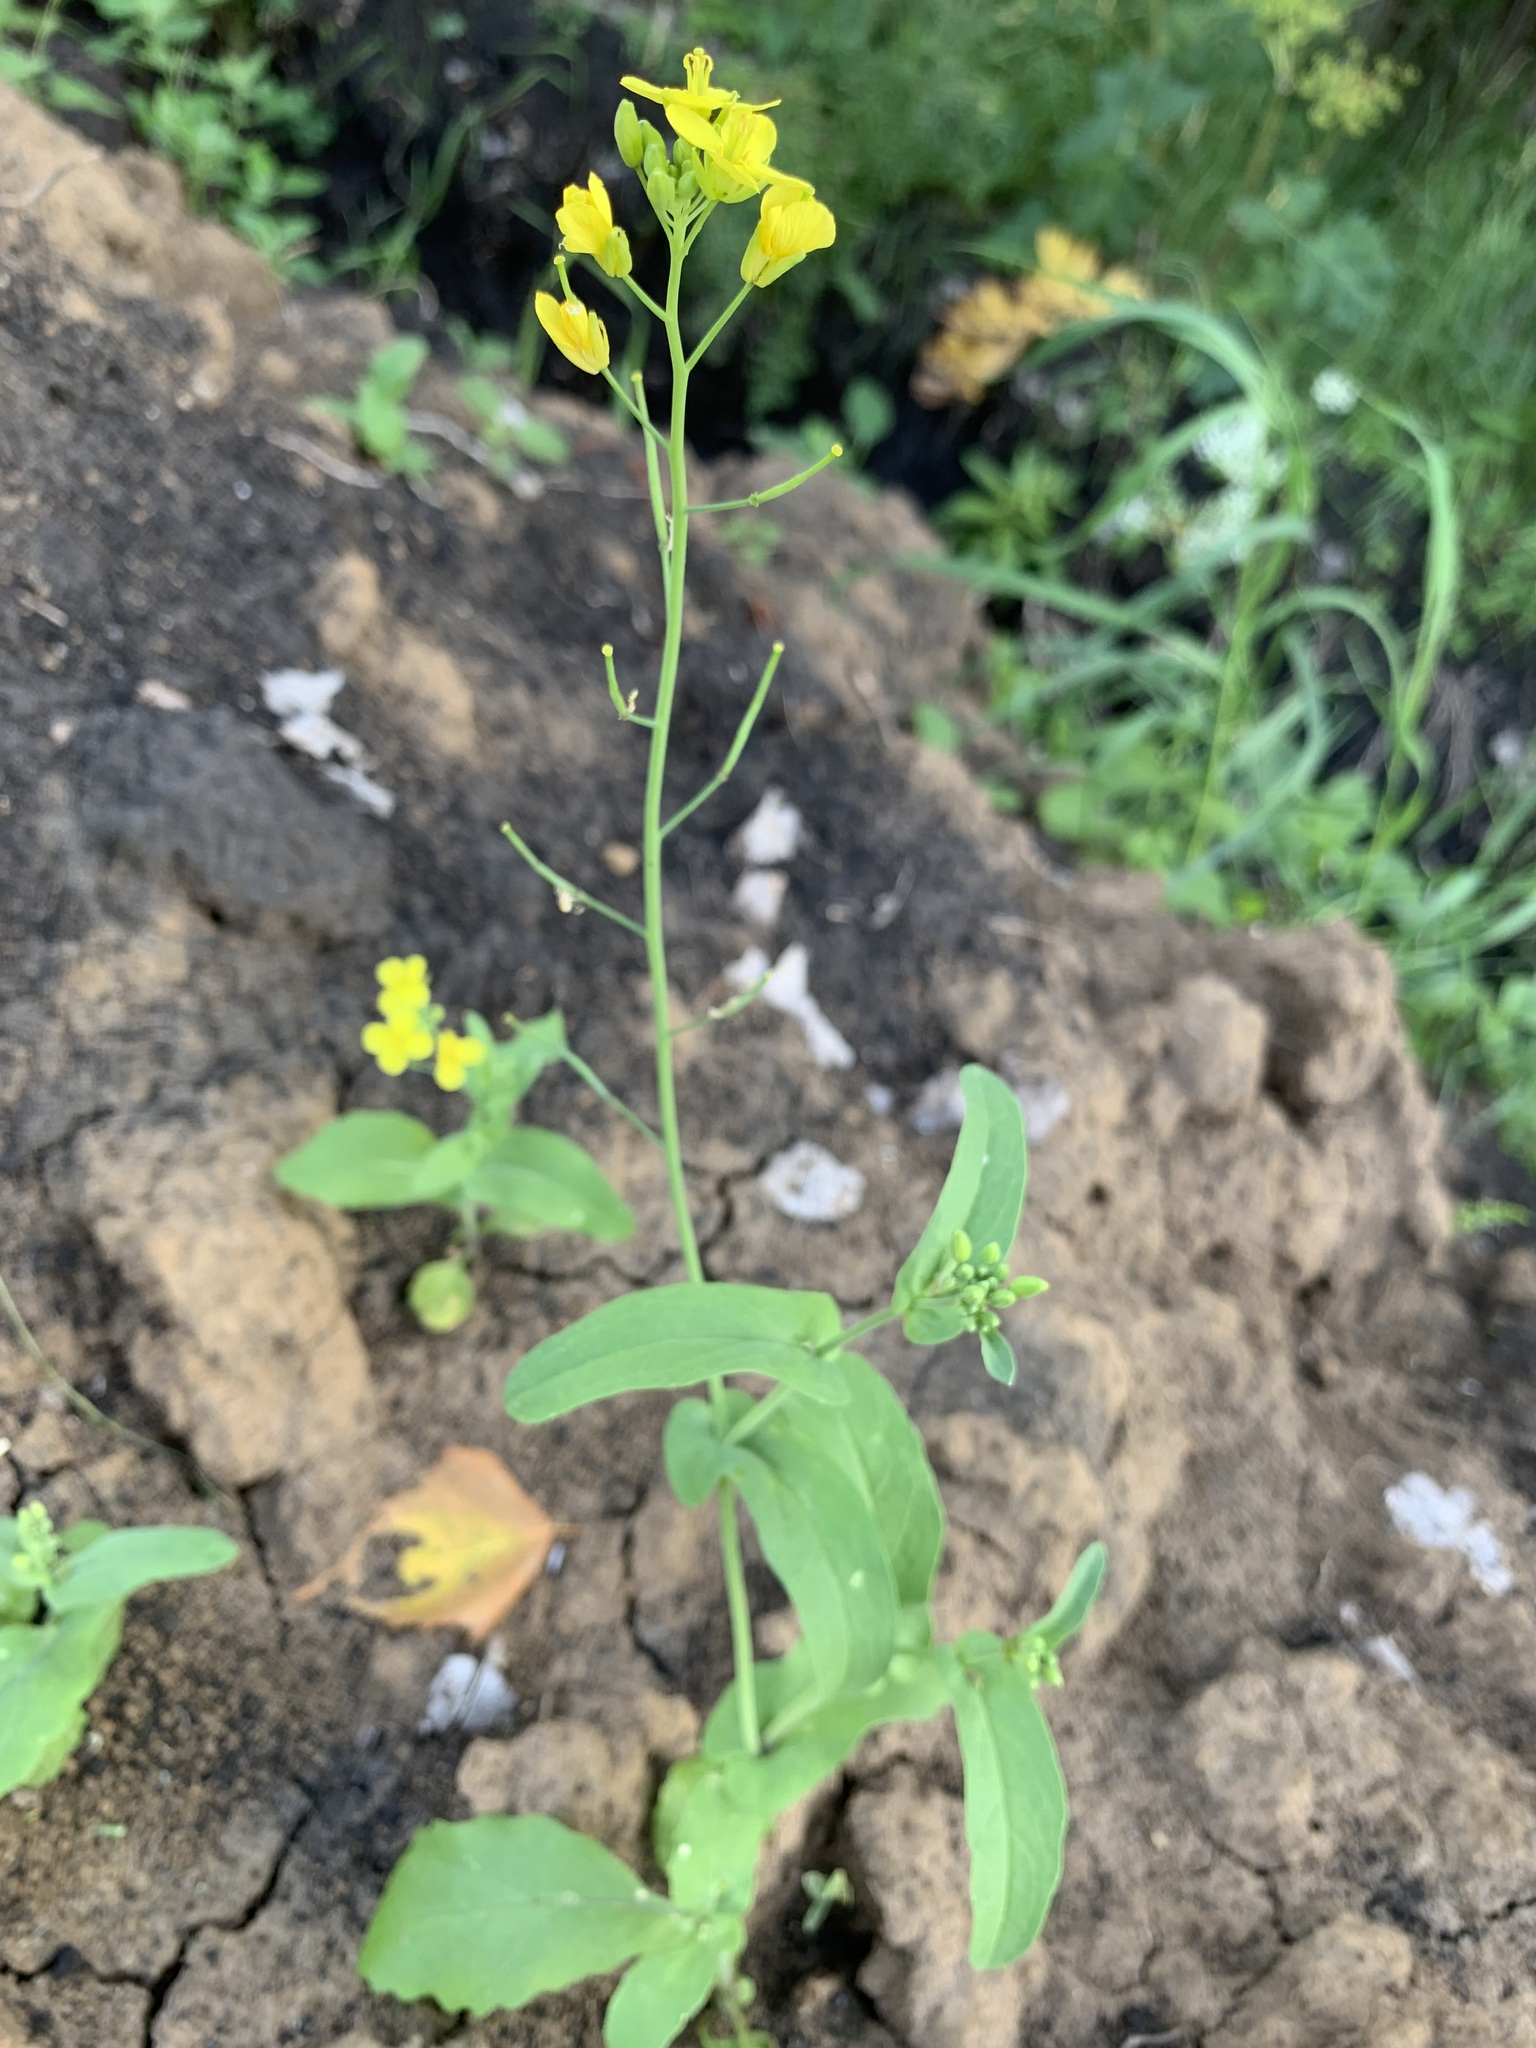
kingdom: Plantae
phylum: Tracheophyta
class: Magnoliopsida
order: Brassicales
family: Brassicaceae
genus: Brassica
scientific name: Brassica rapa
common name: Field mustard
